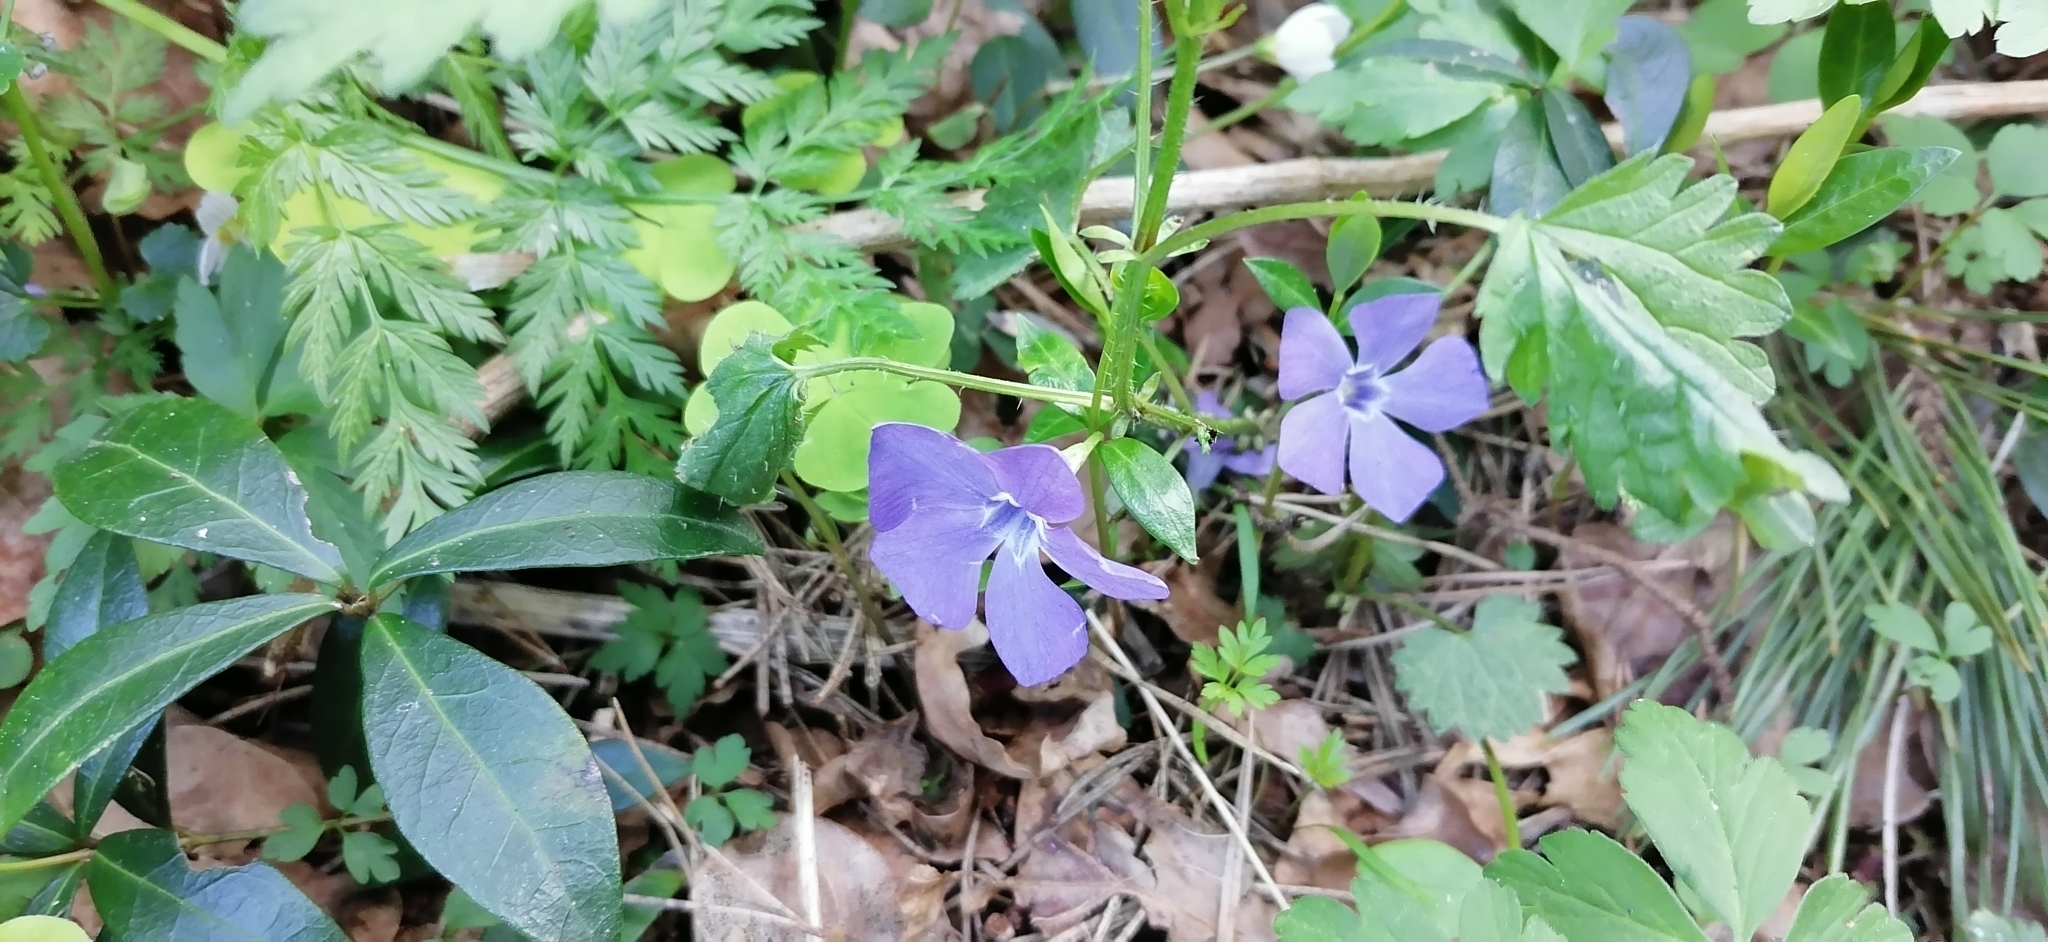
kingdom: Plantae
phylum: Tracheophyta
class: Magnoliopsida
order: Gentianales
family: Apocynaceae
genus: Vinca
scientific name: Vinca minor
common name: Lesser periwinkle
